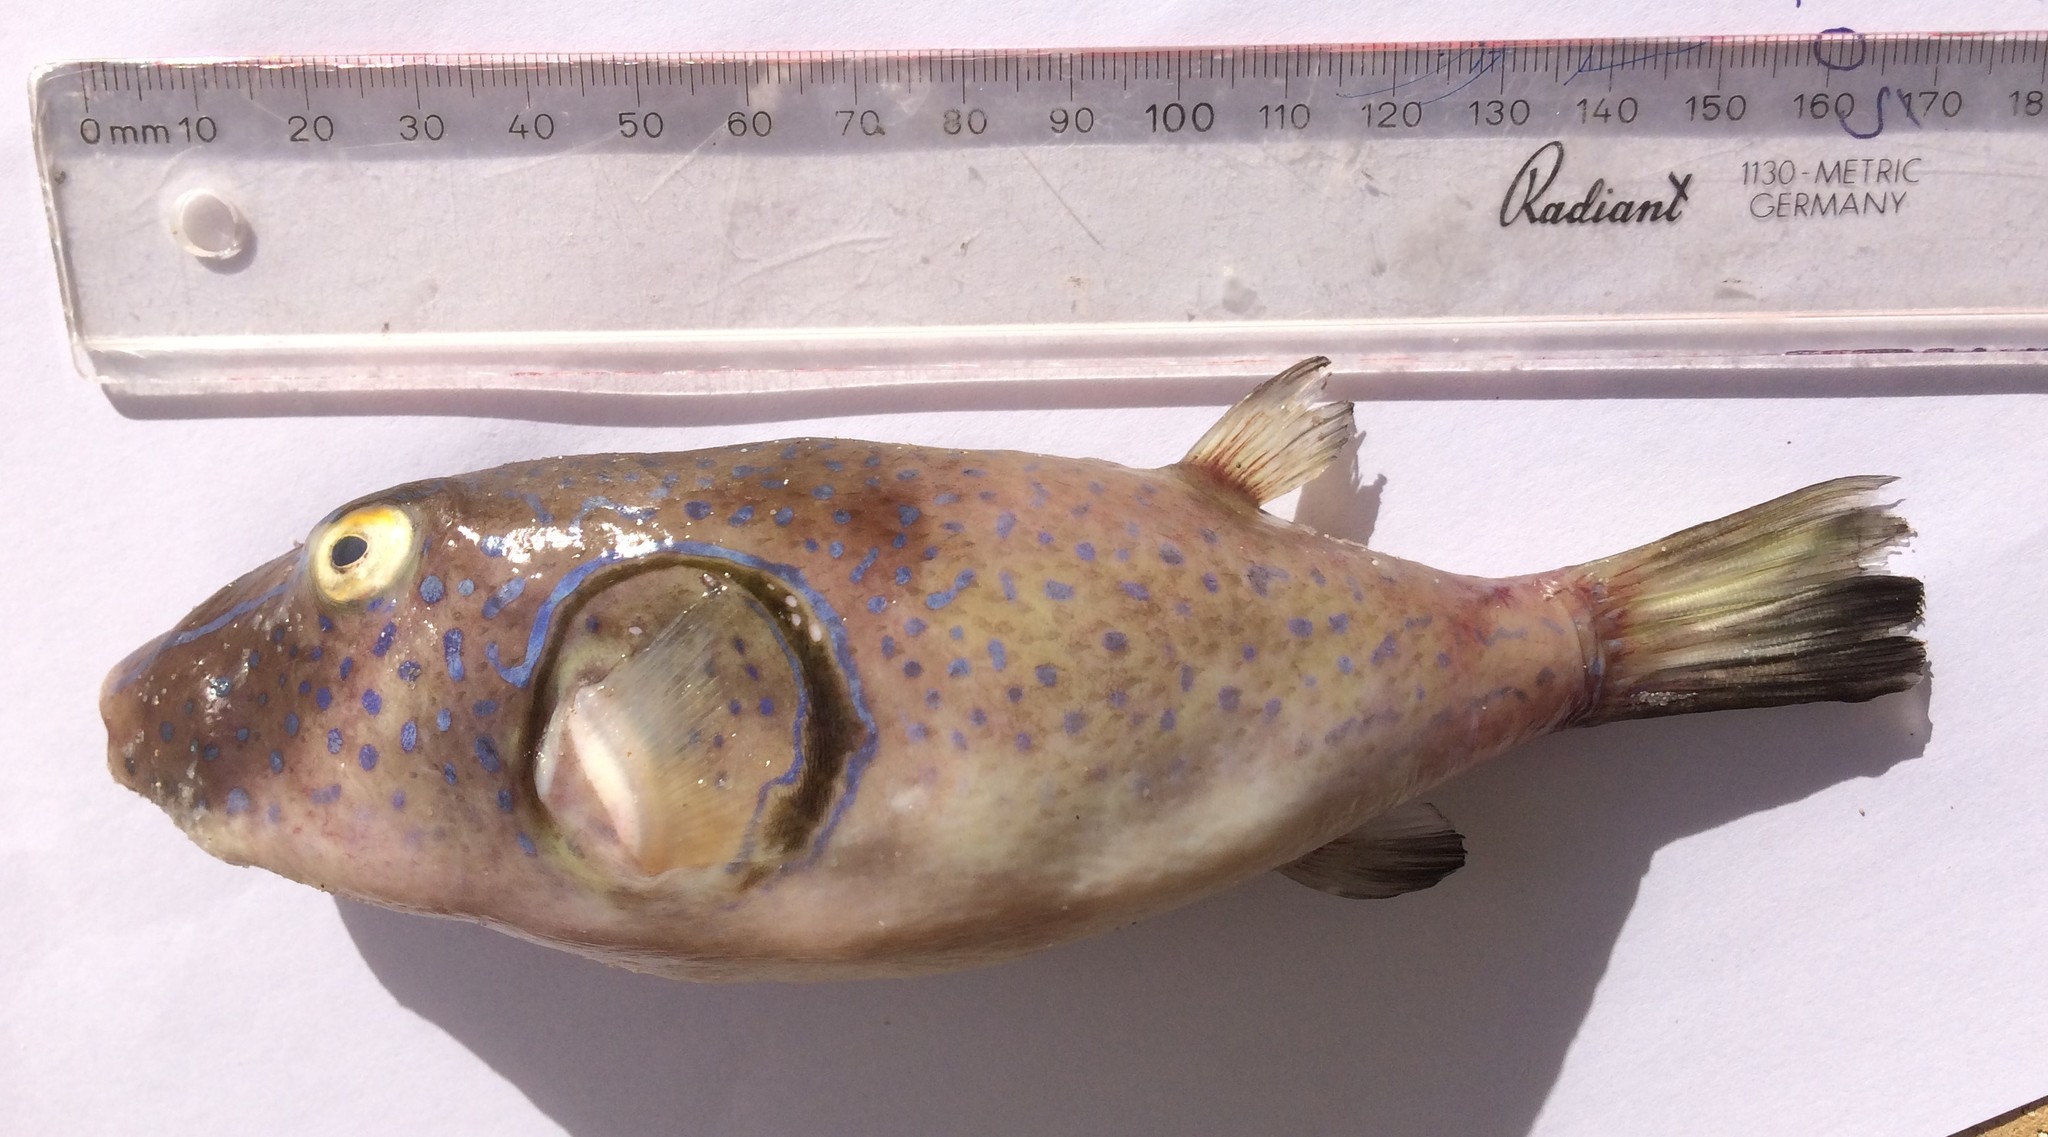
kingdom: Animalia
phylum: Chordata
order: Tetraodontiformes
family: Tetraodontidae
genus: Omegophora
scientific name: Omegophora armilla
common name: Ringed pufferfish
